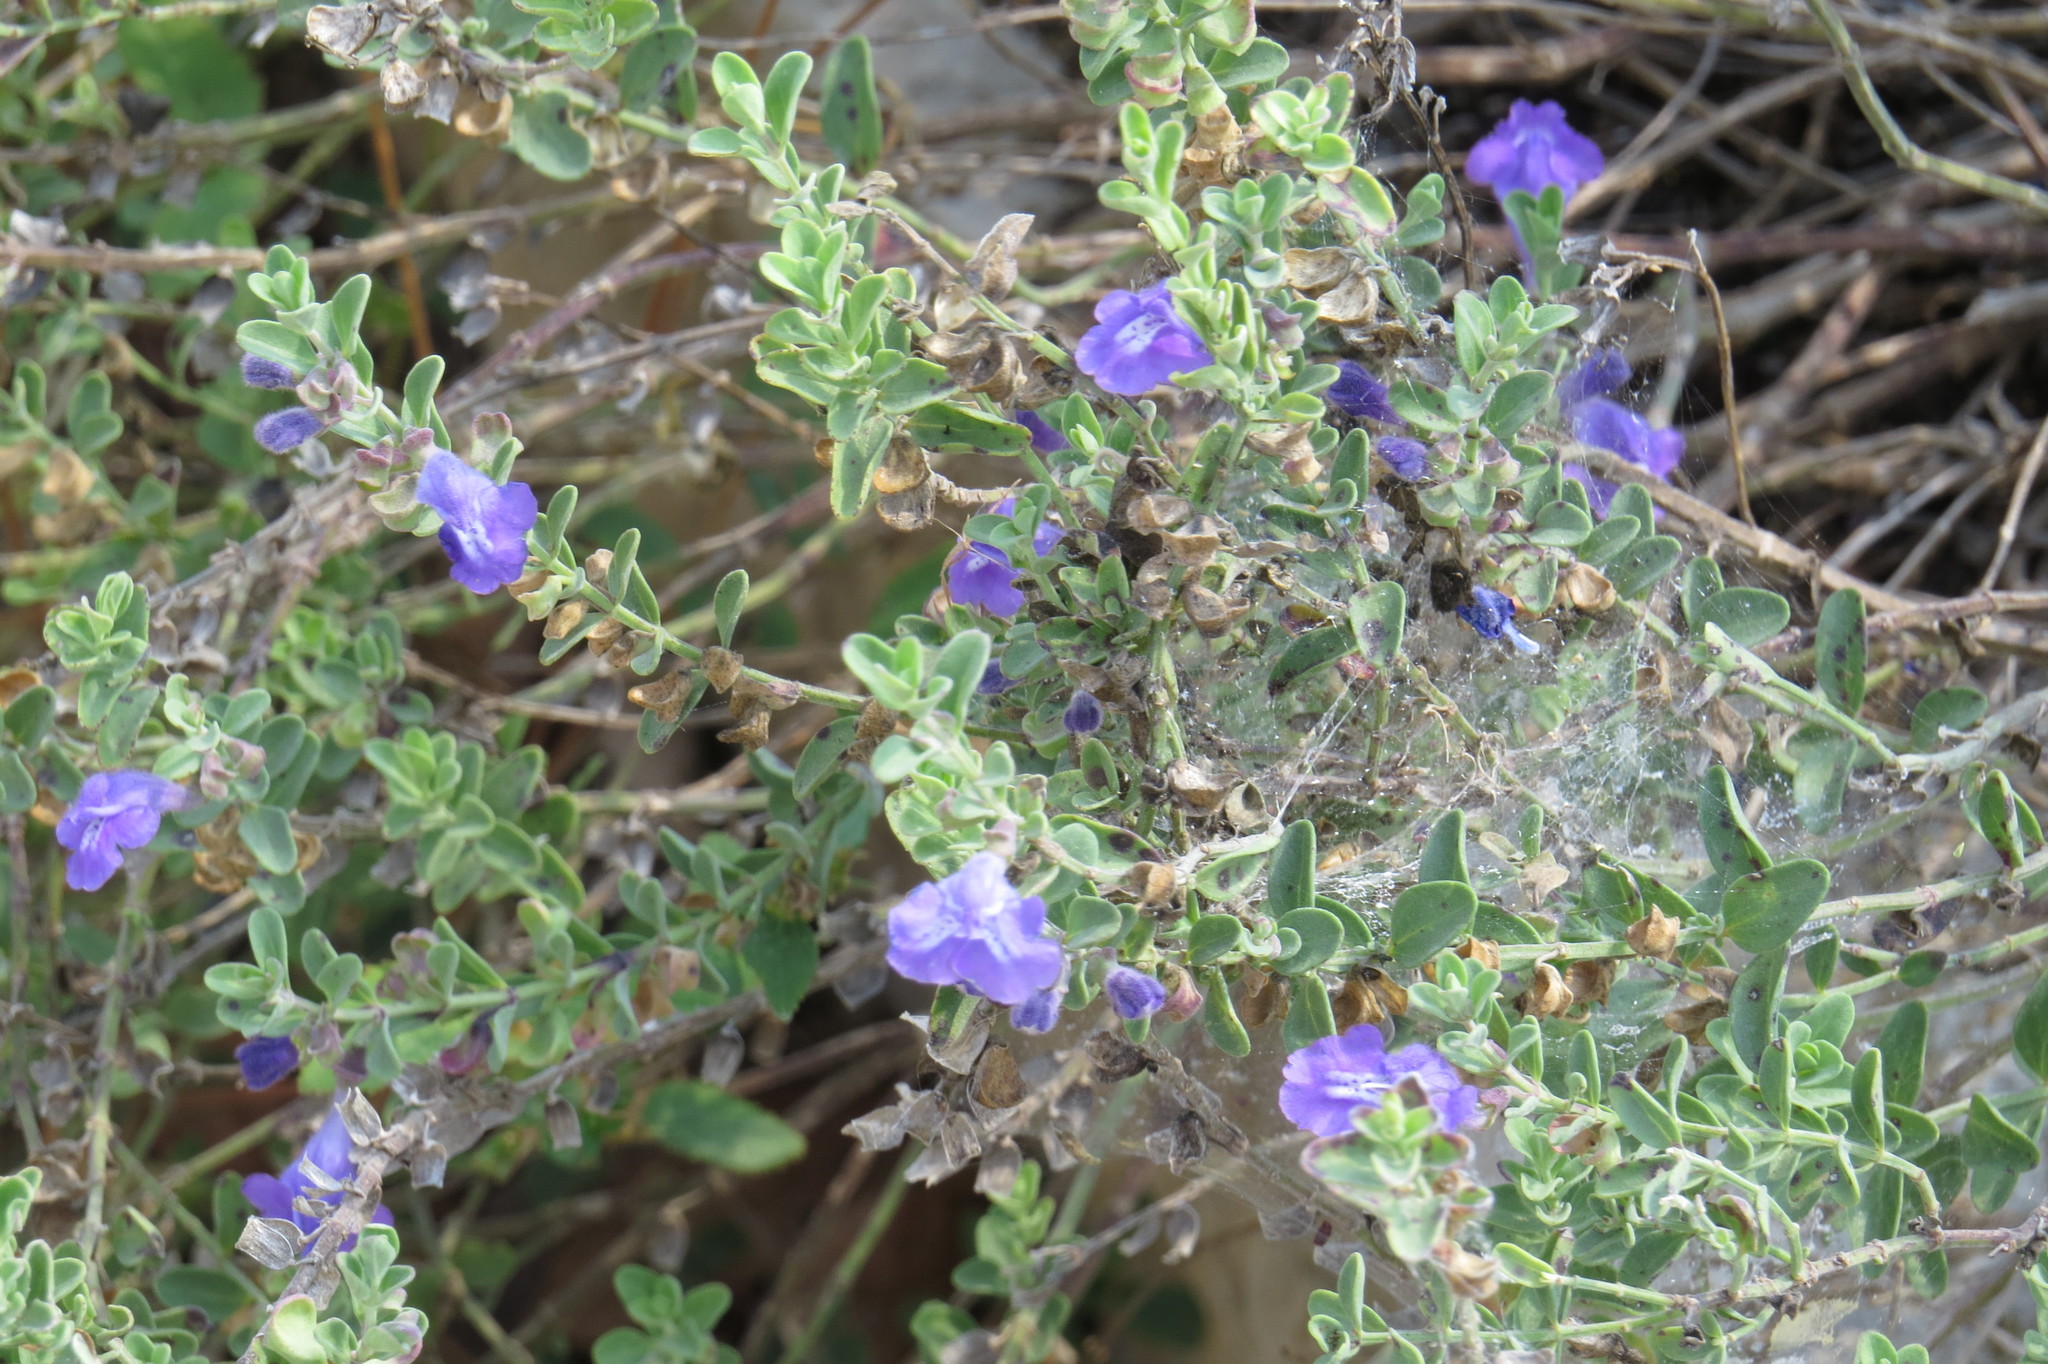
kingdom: Plantae
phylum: Tracheophyta
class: Magnoliopsida
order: Lamiales
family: Lamiaceae
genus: Scutellaria
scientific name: Scutellaria wrightii
